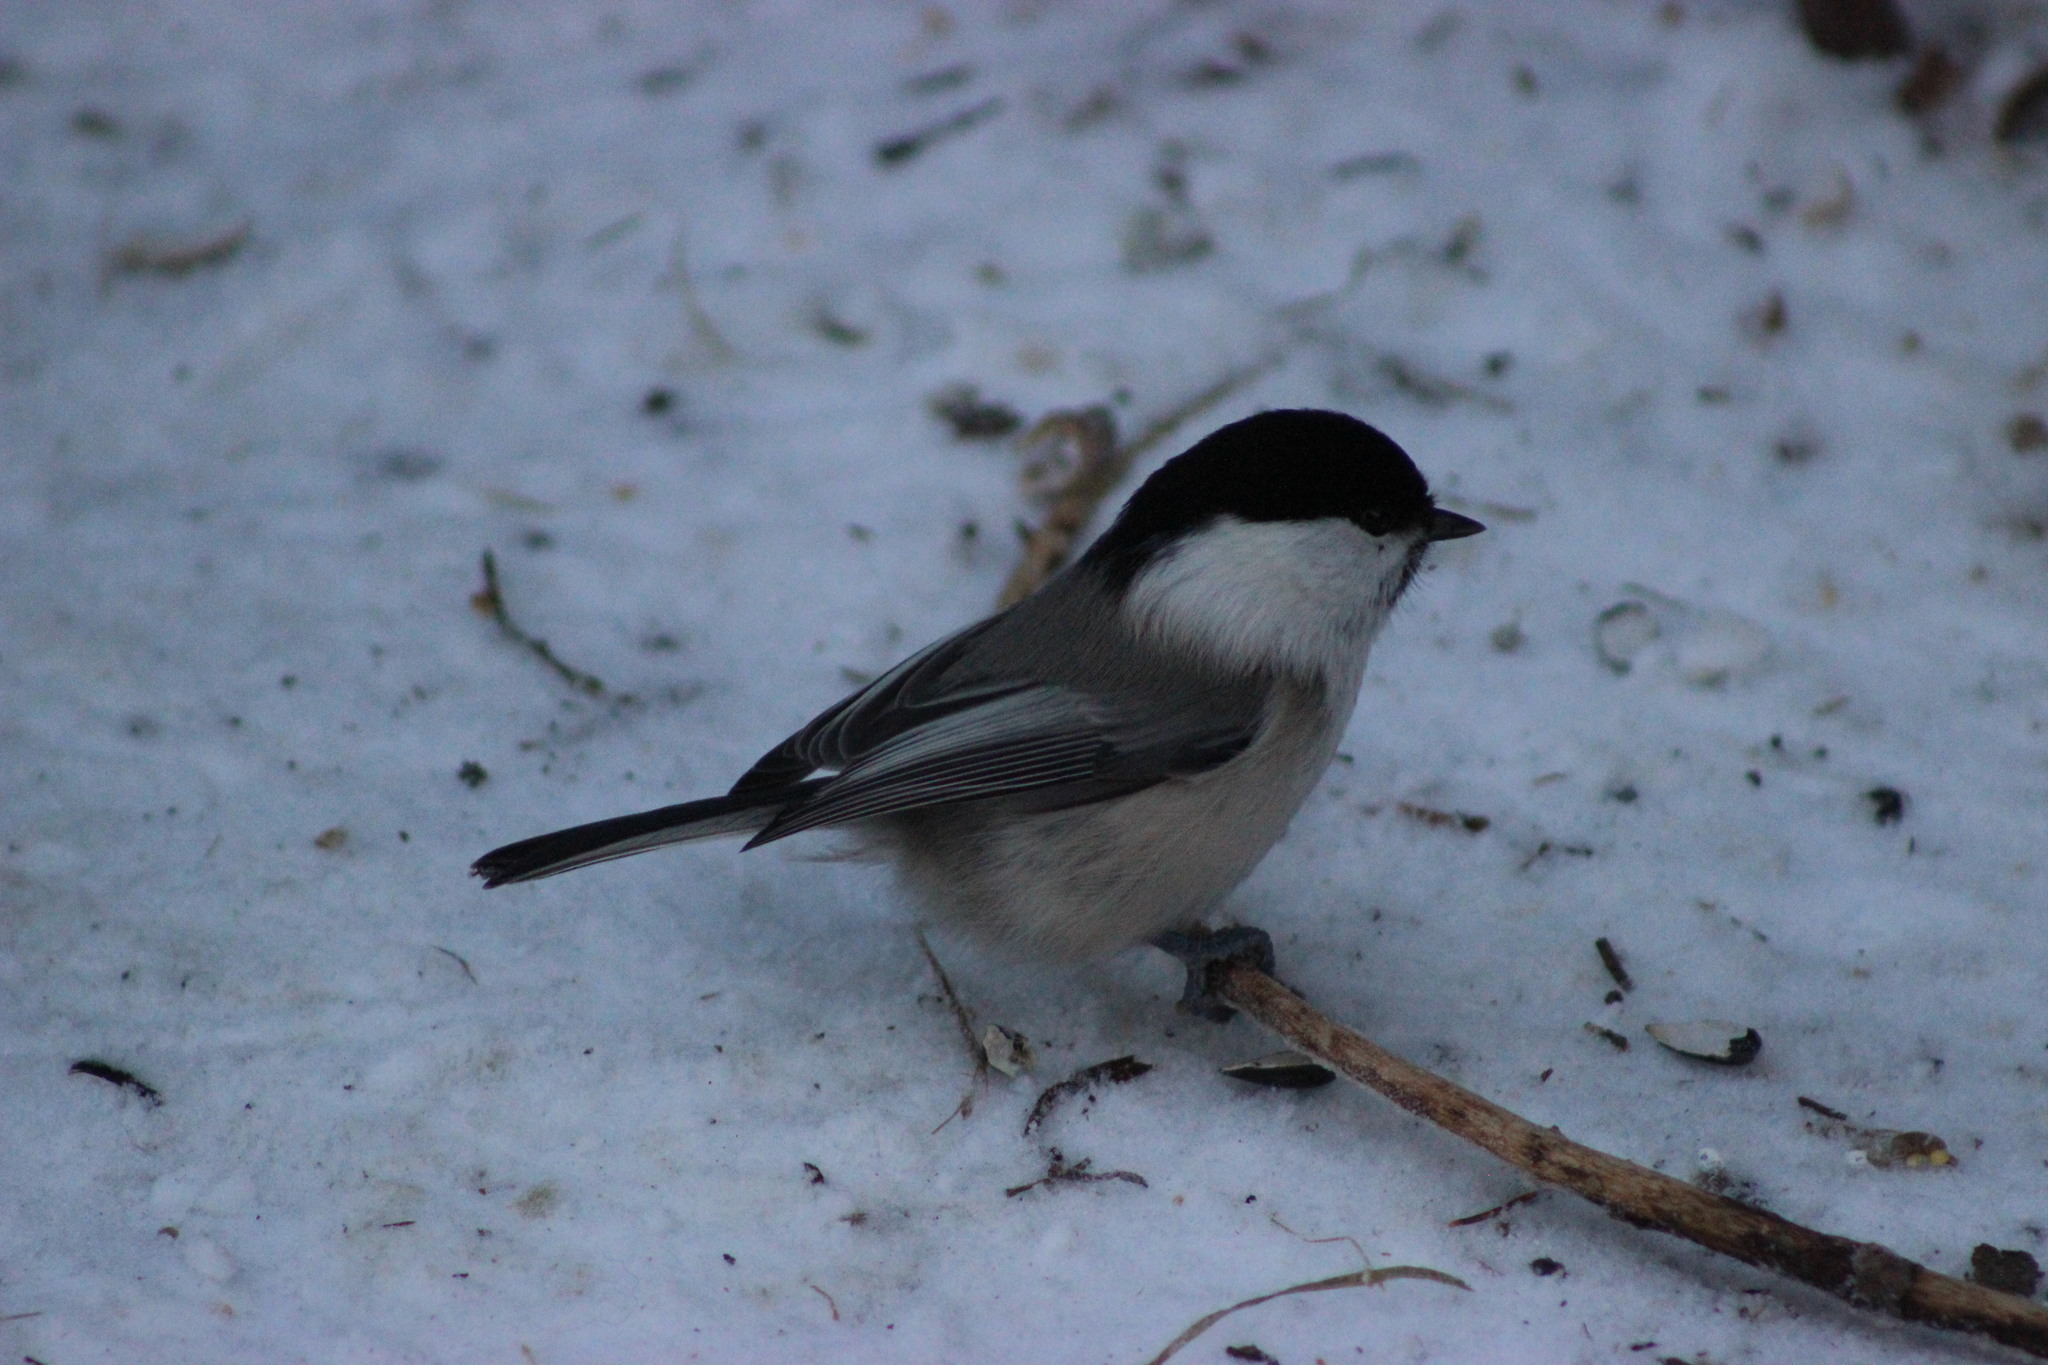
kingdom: Animalia
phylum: Chordata
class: Aves
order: Passeriformes
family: Paridae
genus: Poecile
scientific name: Poecile montanus
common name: Willow tit
